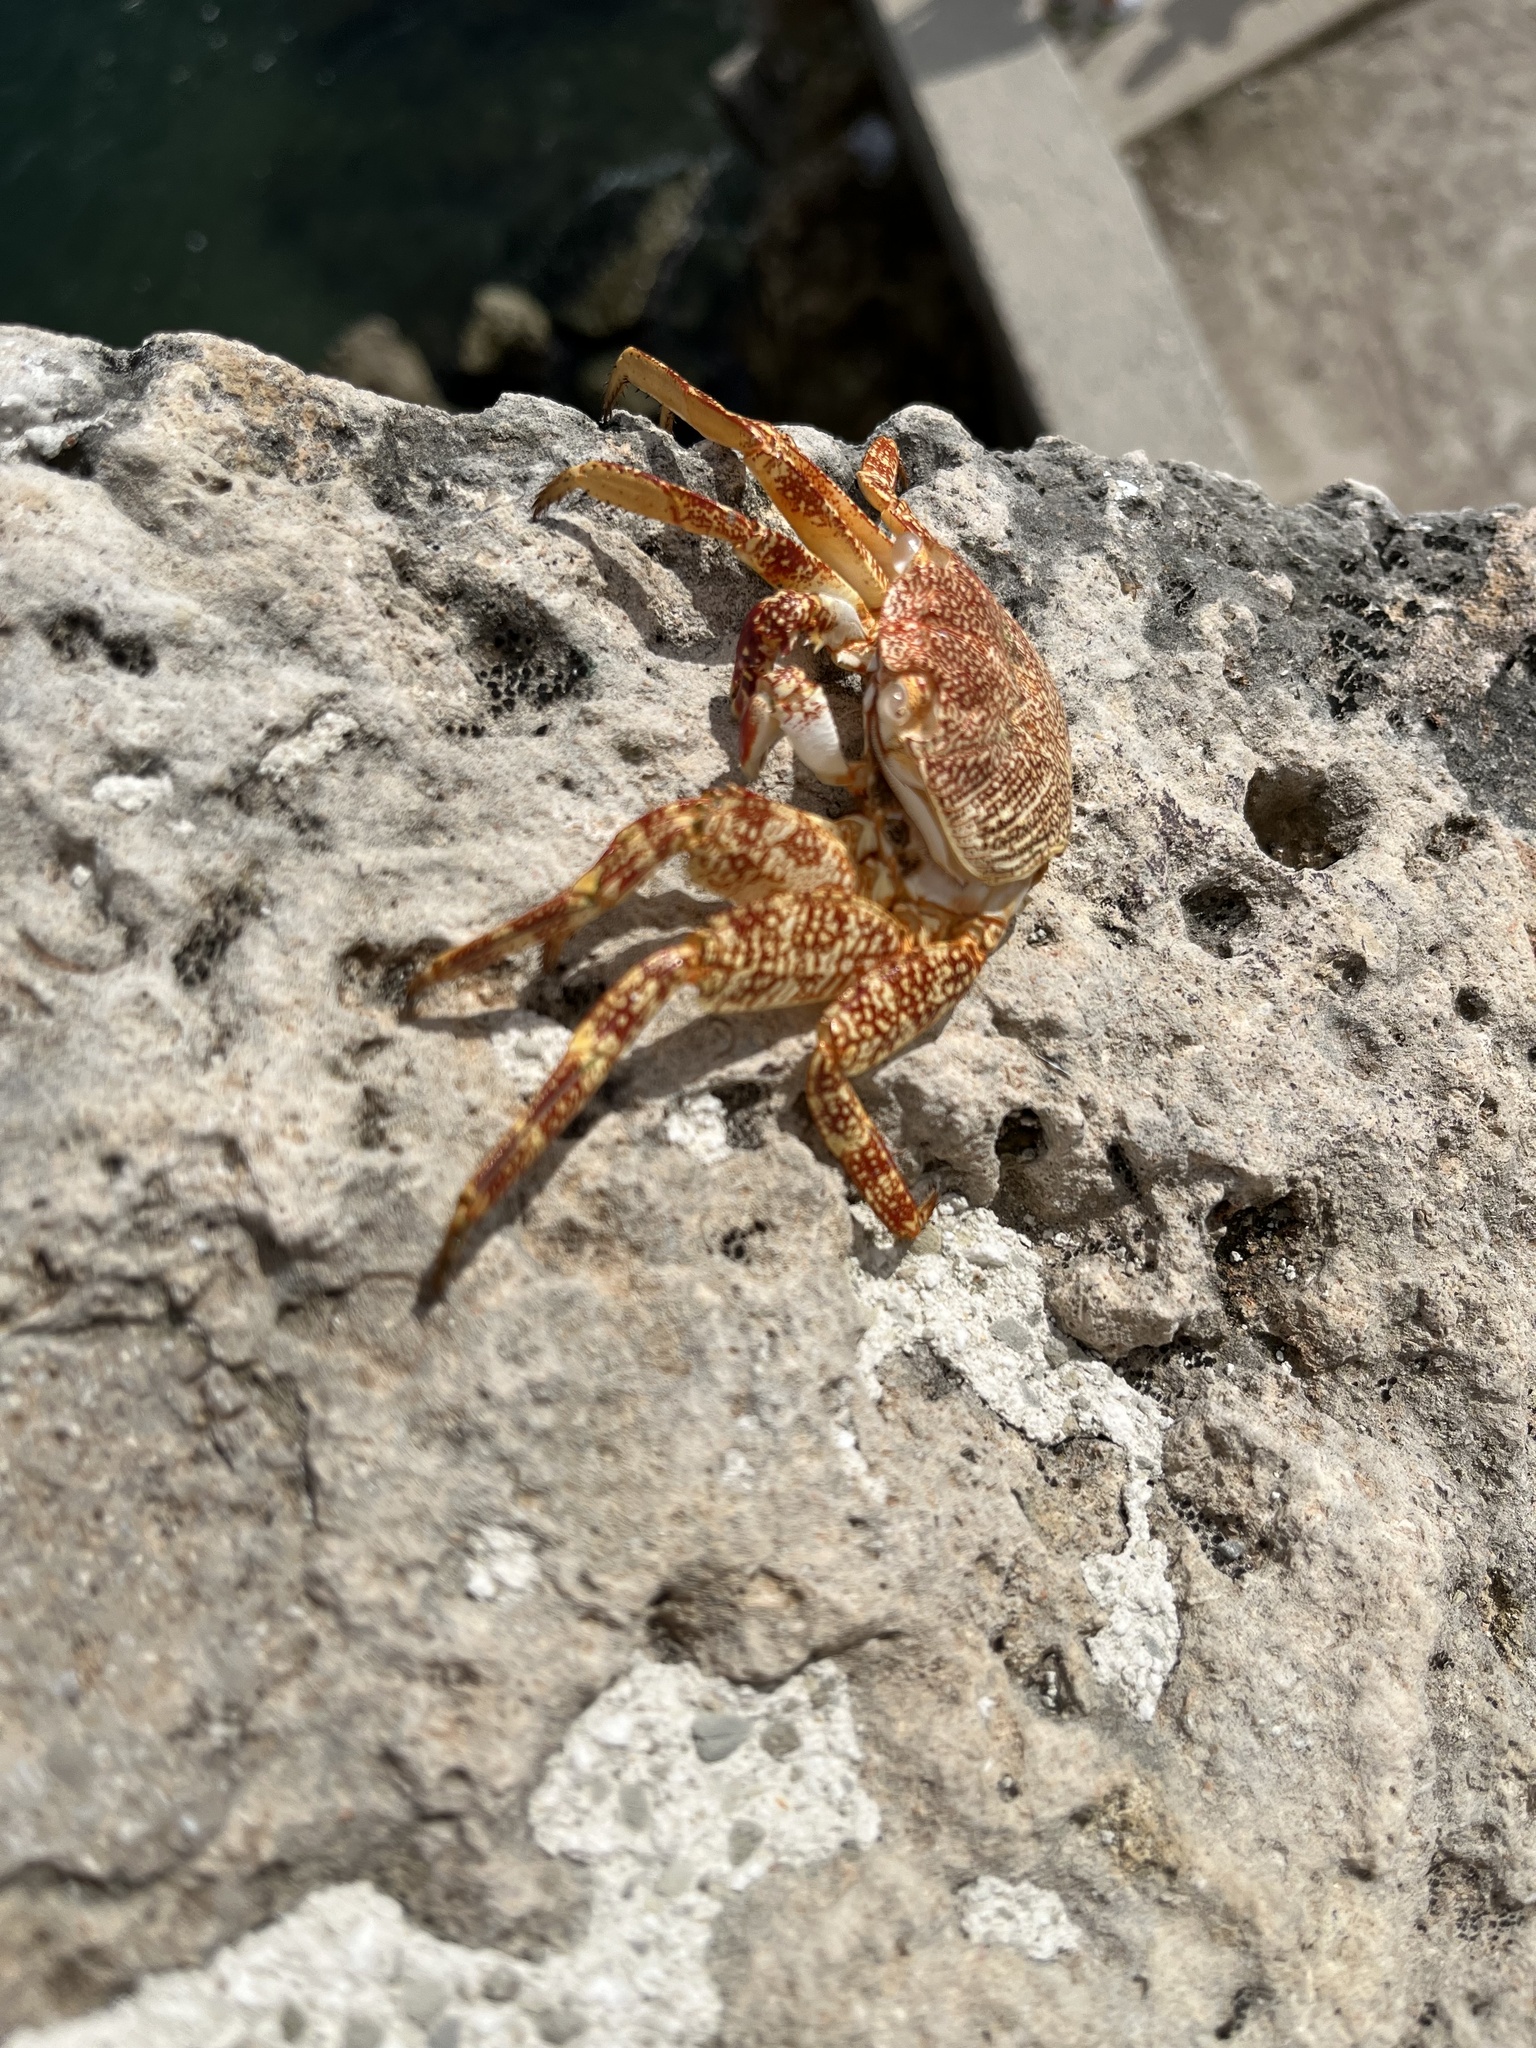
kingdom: Animalia
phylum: Arthropoda
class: Malacostraca
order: Decapoda
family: Grapsidae
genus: Grapsus
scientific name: Grapsus grapsus
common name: Sally lightfoot
